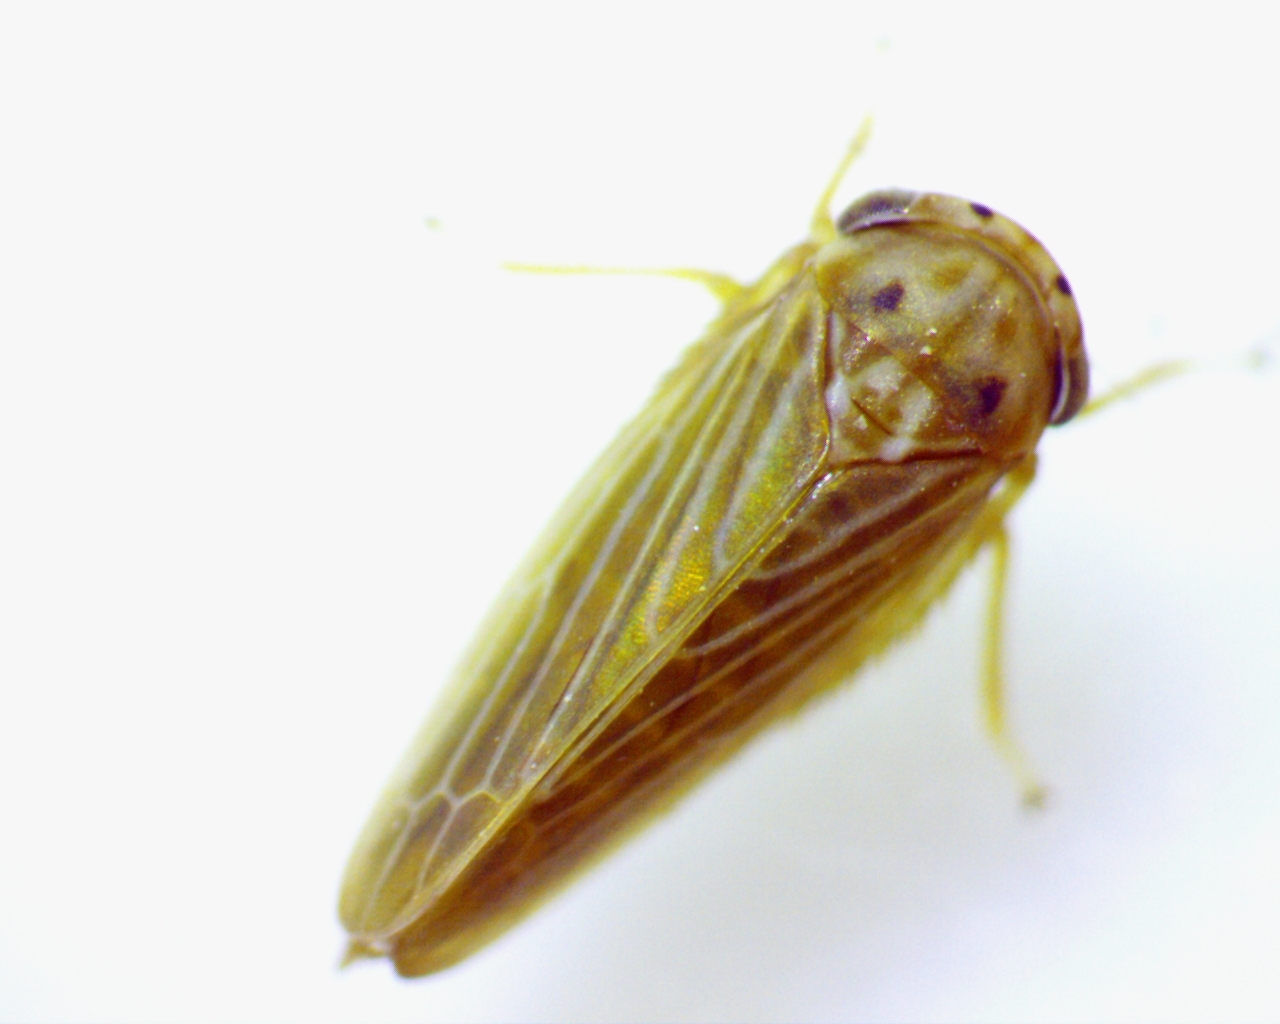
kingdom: Animalia
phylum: Arthropoda
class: Insecta
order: Hemiptera
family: Cicadellidae
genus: Agallia
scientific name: Agallia constricta
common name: The constricted leafhopper
